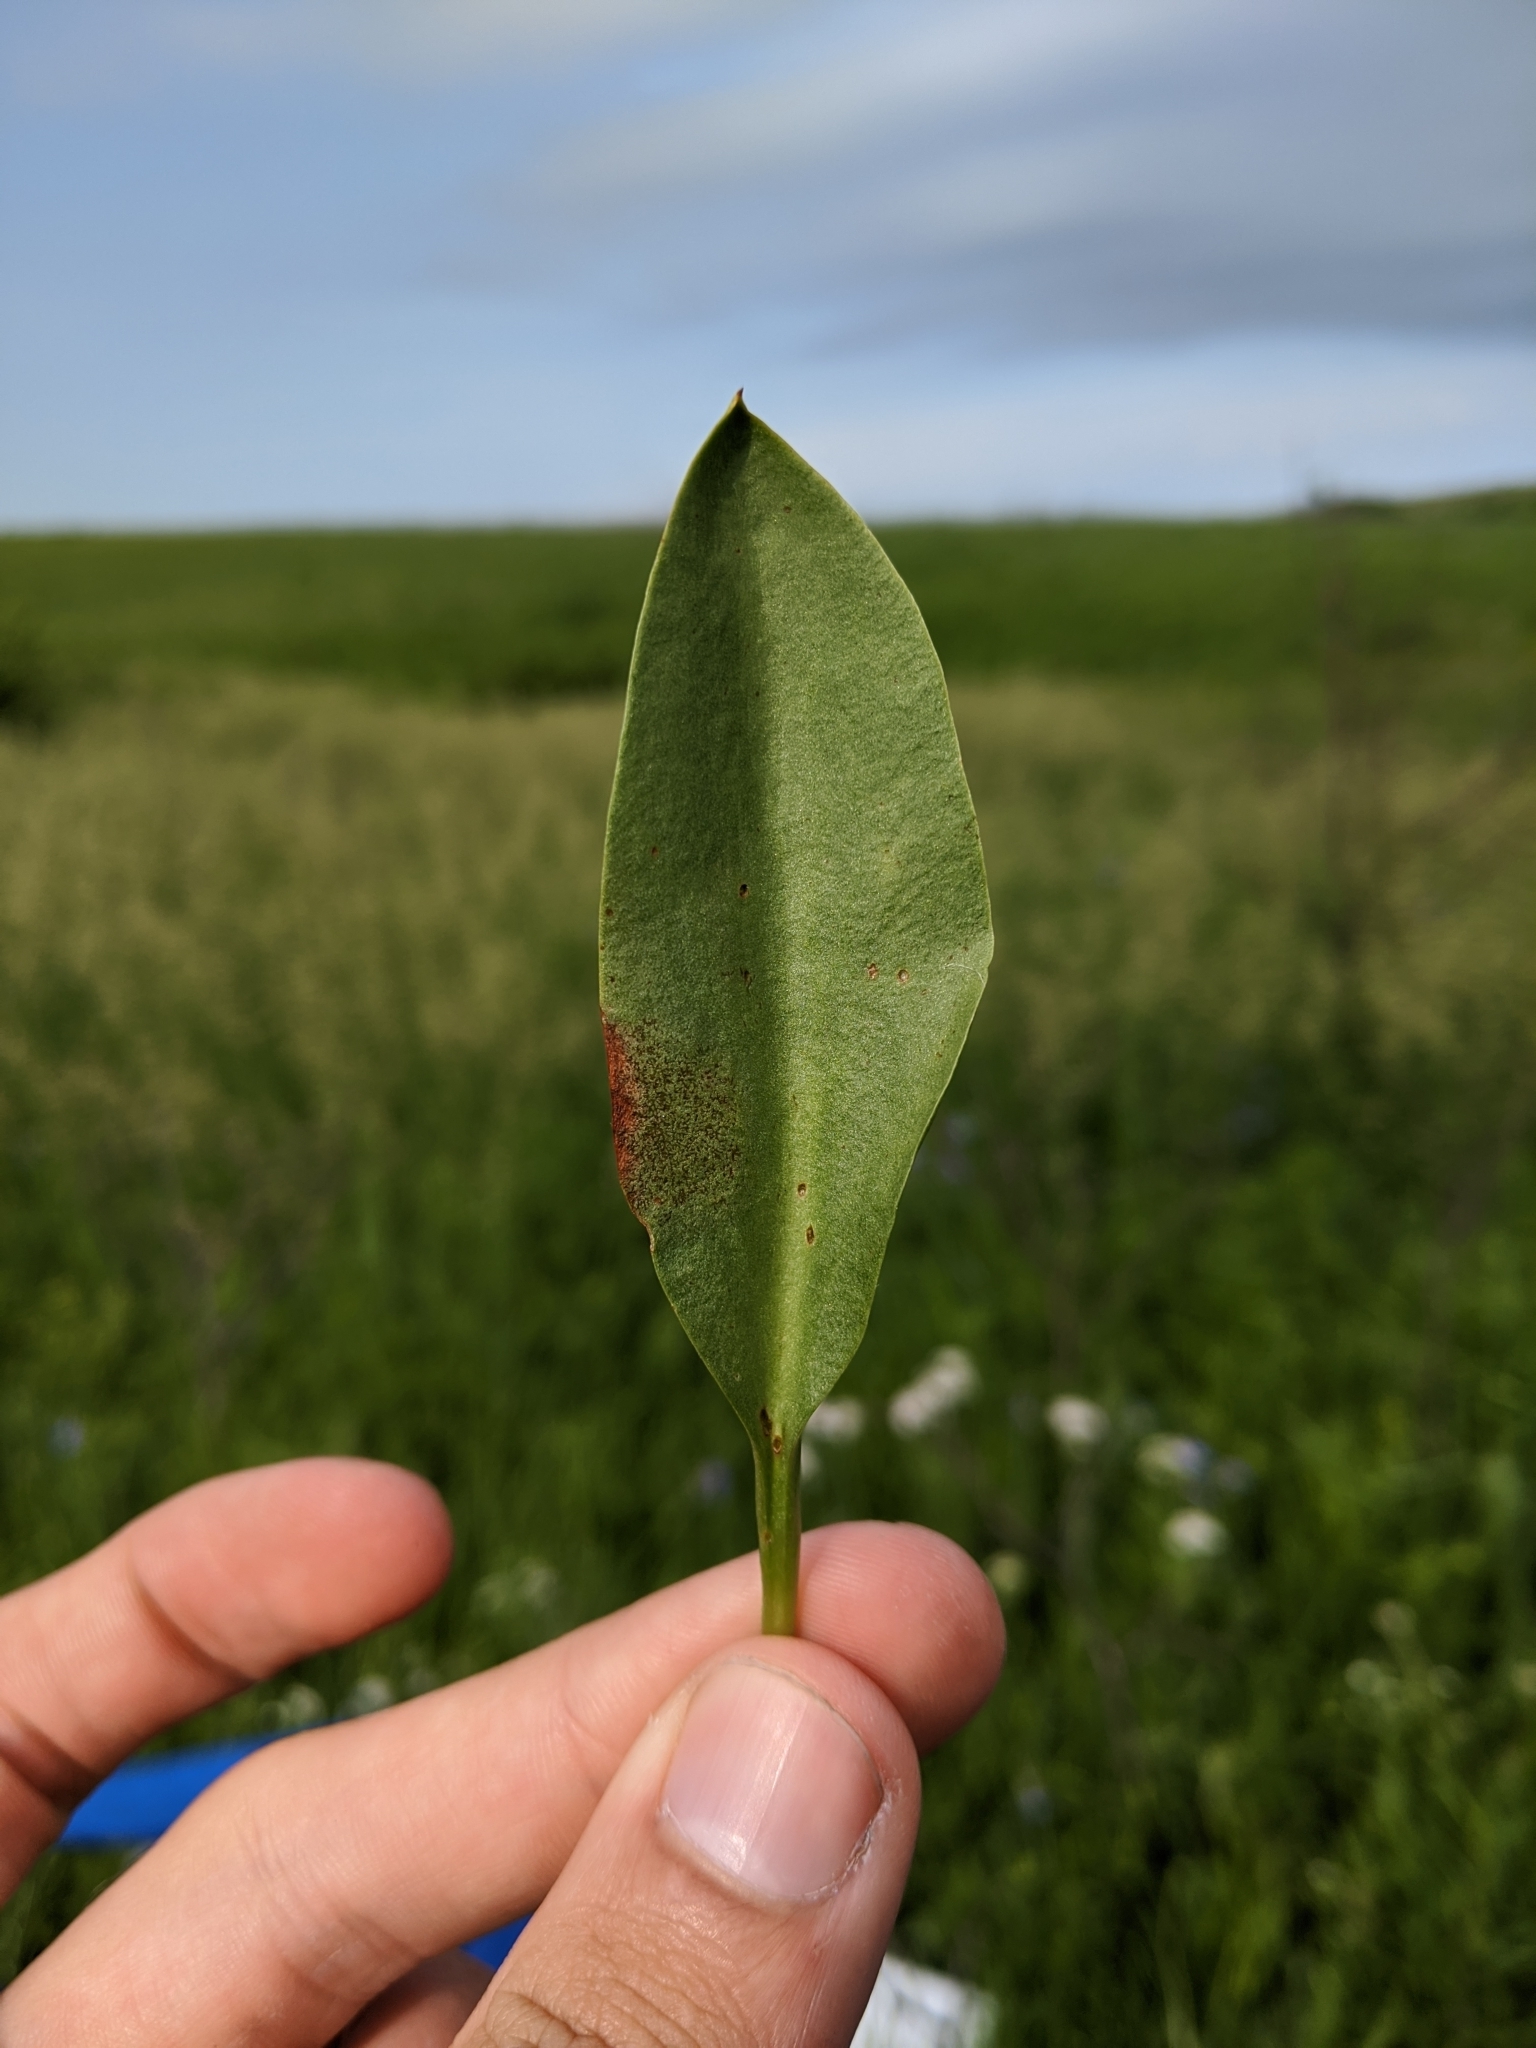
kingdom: Plantae
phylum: Tracheophyta
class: Polypodiopsida
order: Ophioglossales
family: Ophioglossaceae
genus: Ophioglossum
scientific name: Ophioglossum engelmannii
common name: Limestone adder's-tongue
